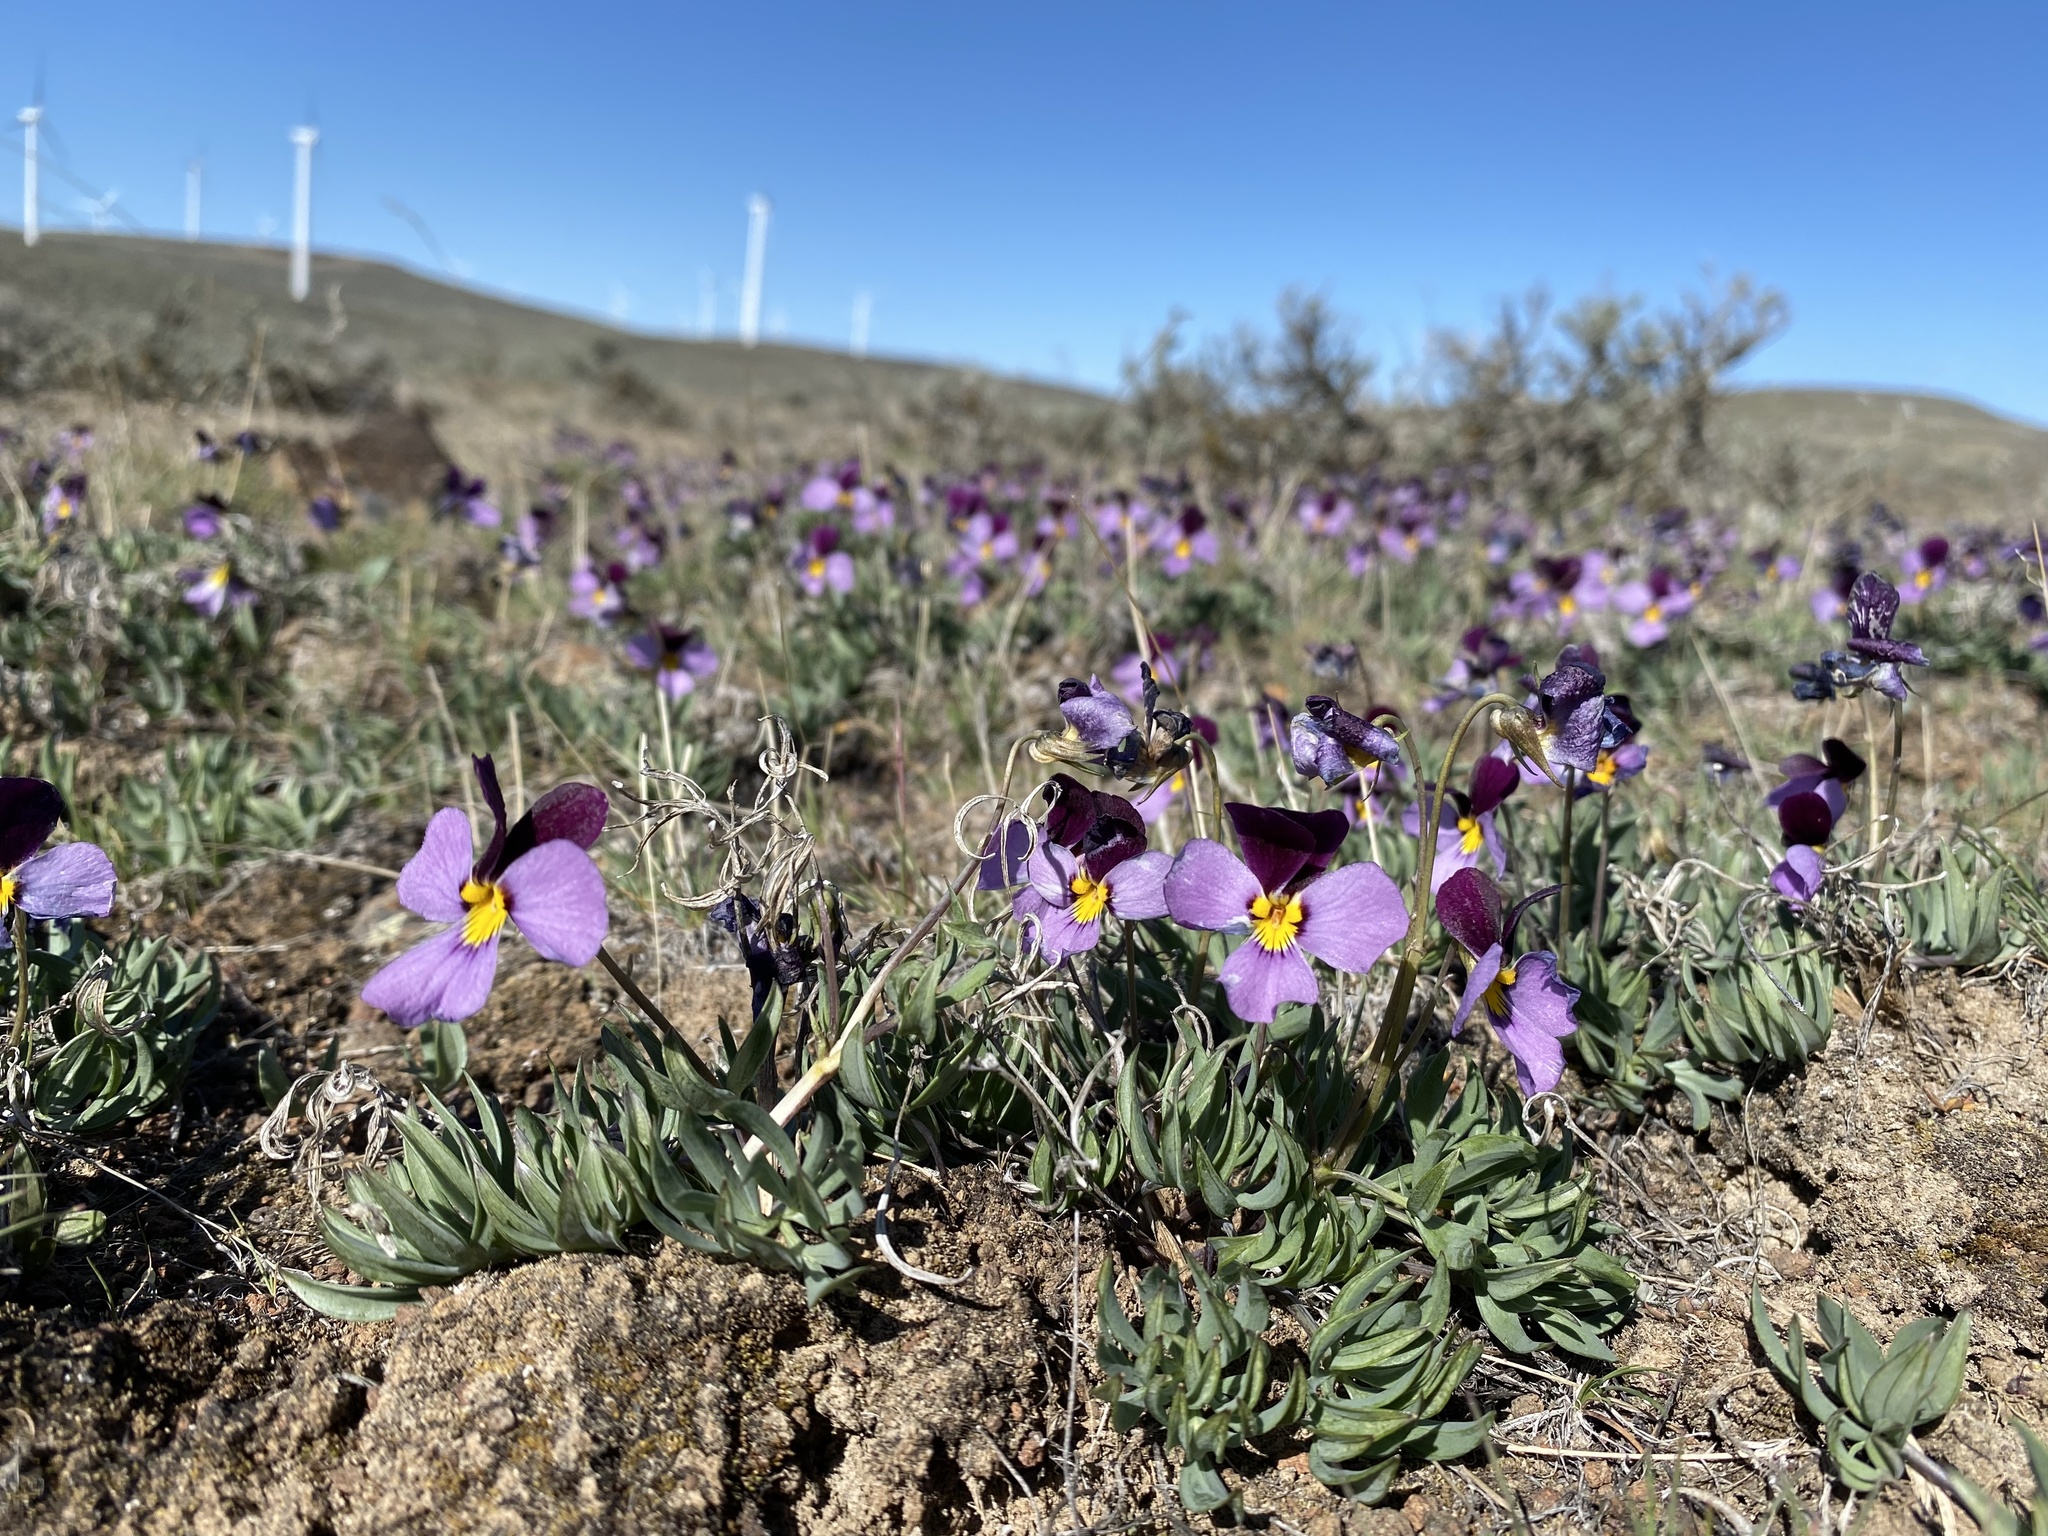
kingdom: Plantae
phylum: Tracheophyta
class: Magnoliopsida
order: Malpighiales
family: Violaceae
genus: Viola
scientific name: Viola trinervata
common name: Sagebrush violet
